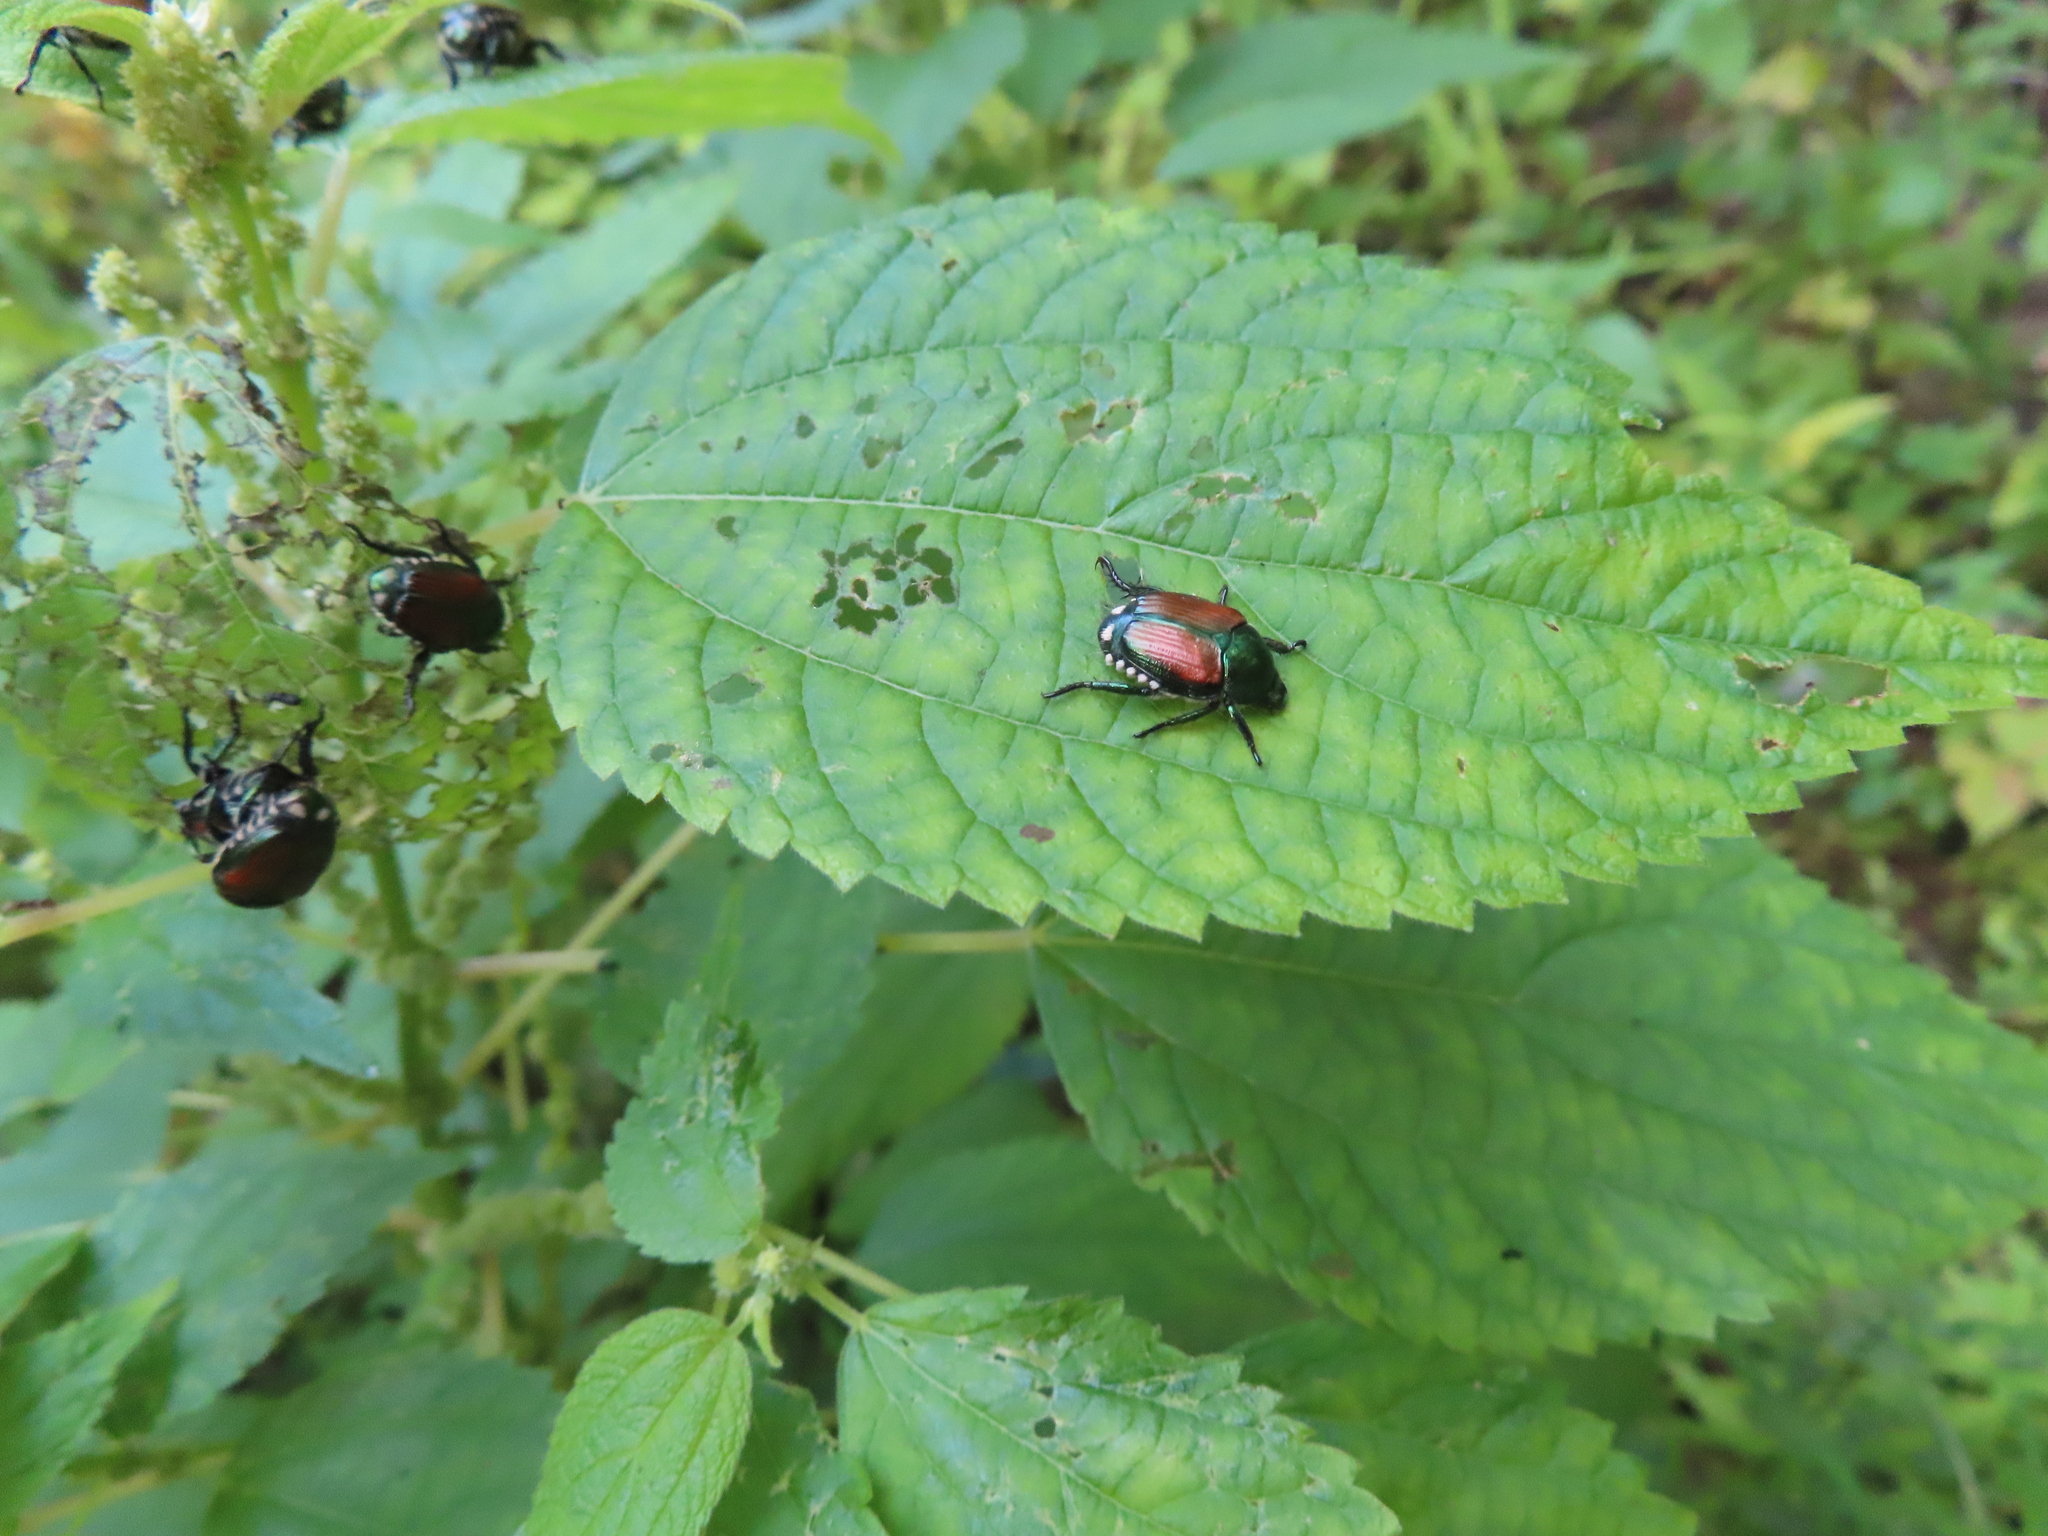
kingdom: Animalia
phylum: Arthropoda
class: Insecta
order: Coleoptera
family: Scarabaeidae
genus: Popillia
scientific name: Popillia japonica
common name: Japanese beetle
